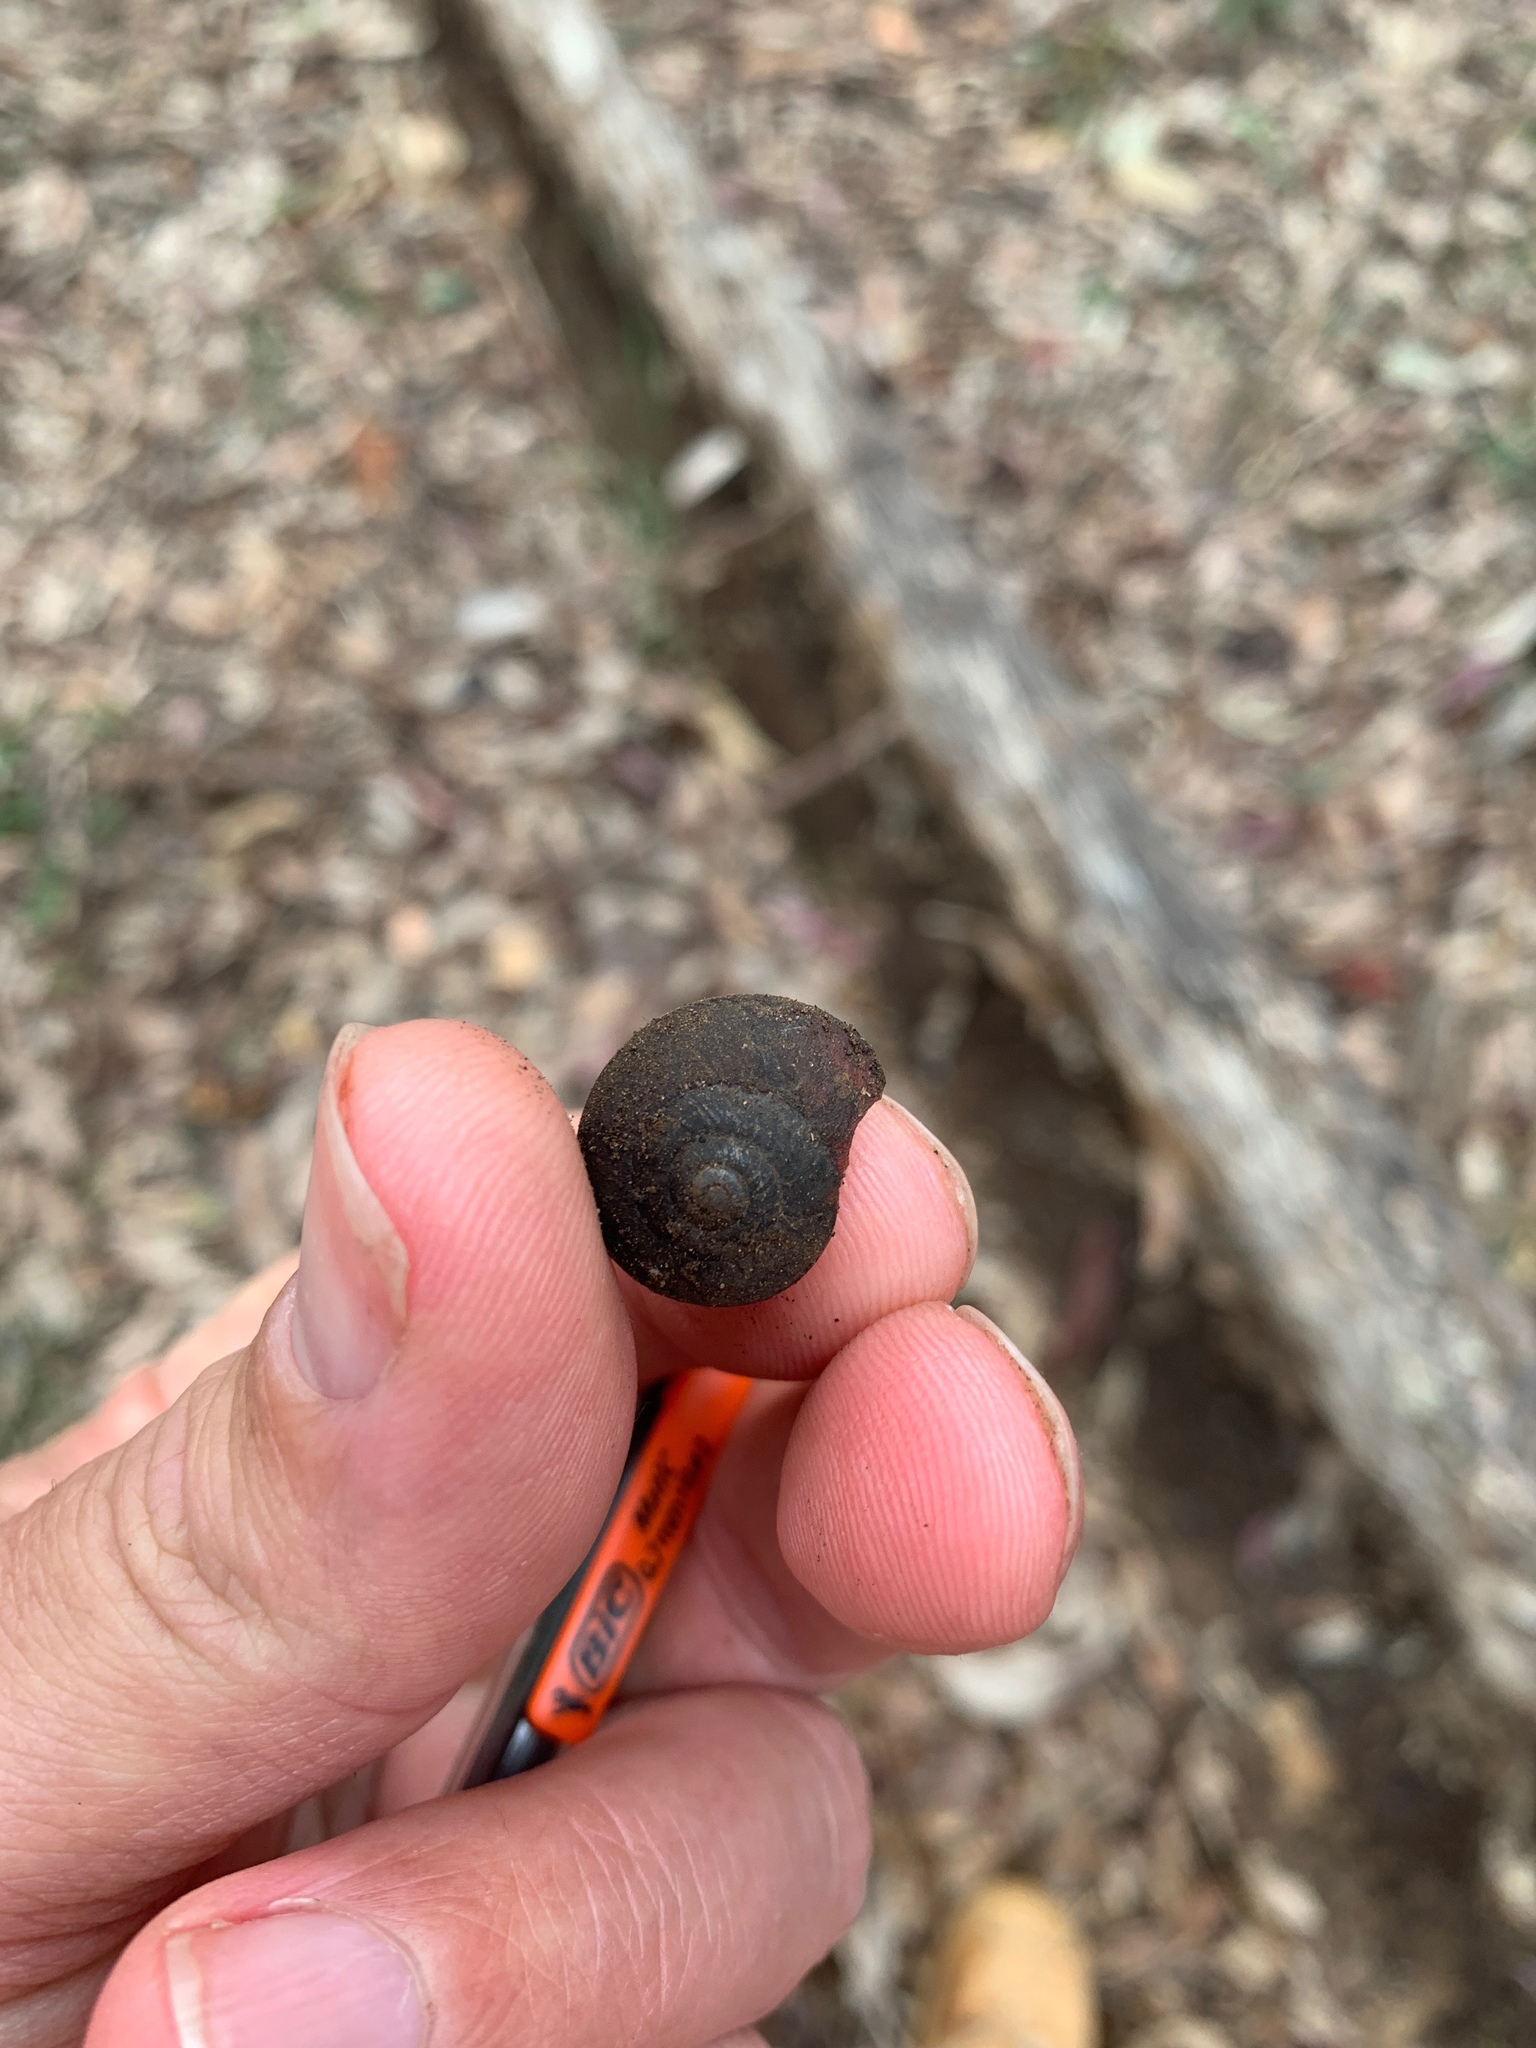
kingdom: Animalia
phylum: Mollusca
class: Gastropoda
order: Stylommatophora
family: Camaenidae
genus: Sauroconcha
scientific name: Sauroconcha corneovirens
